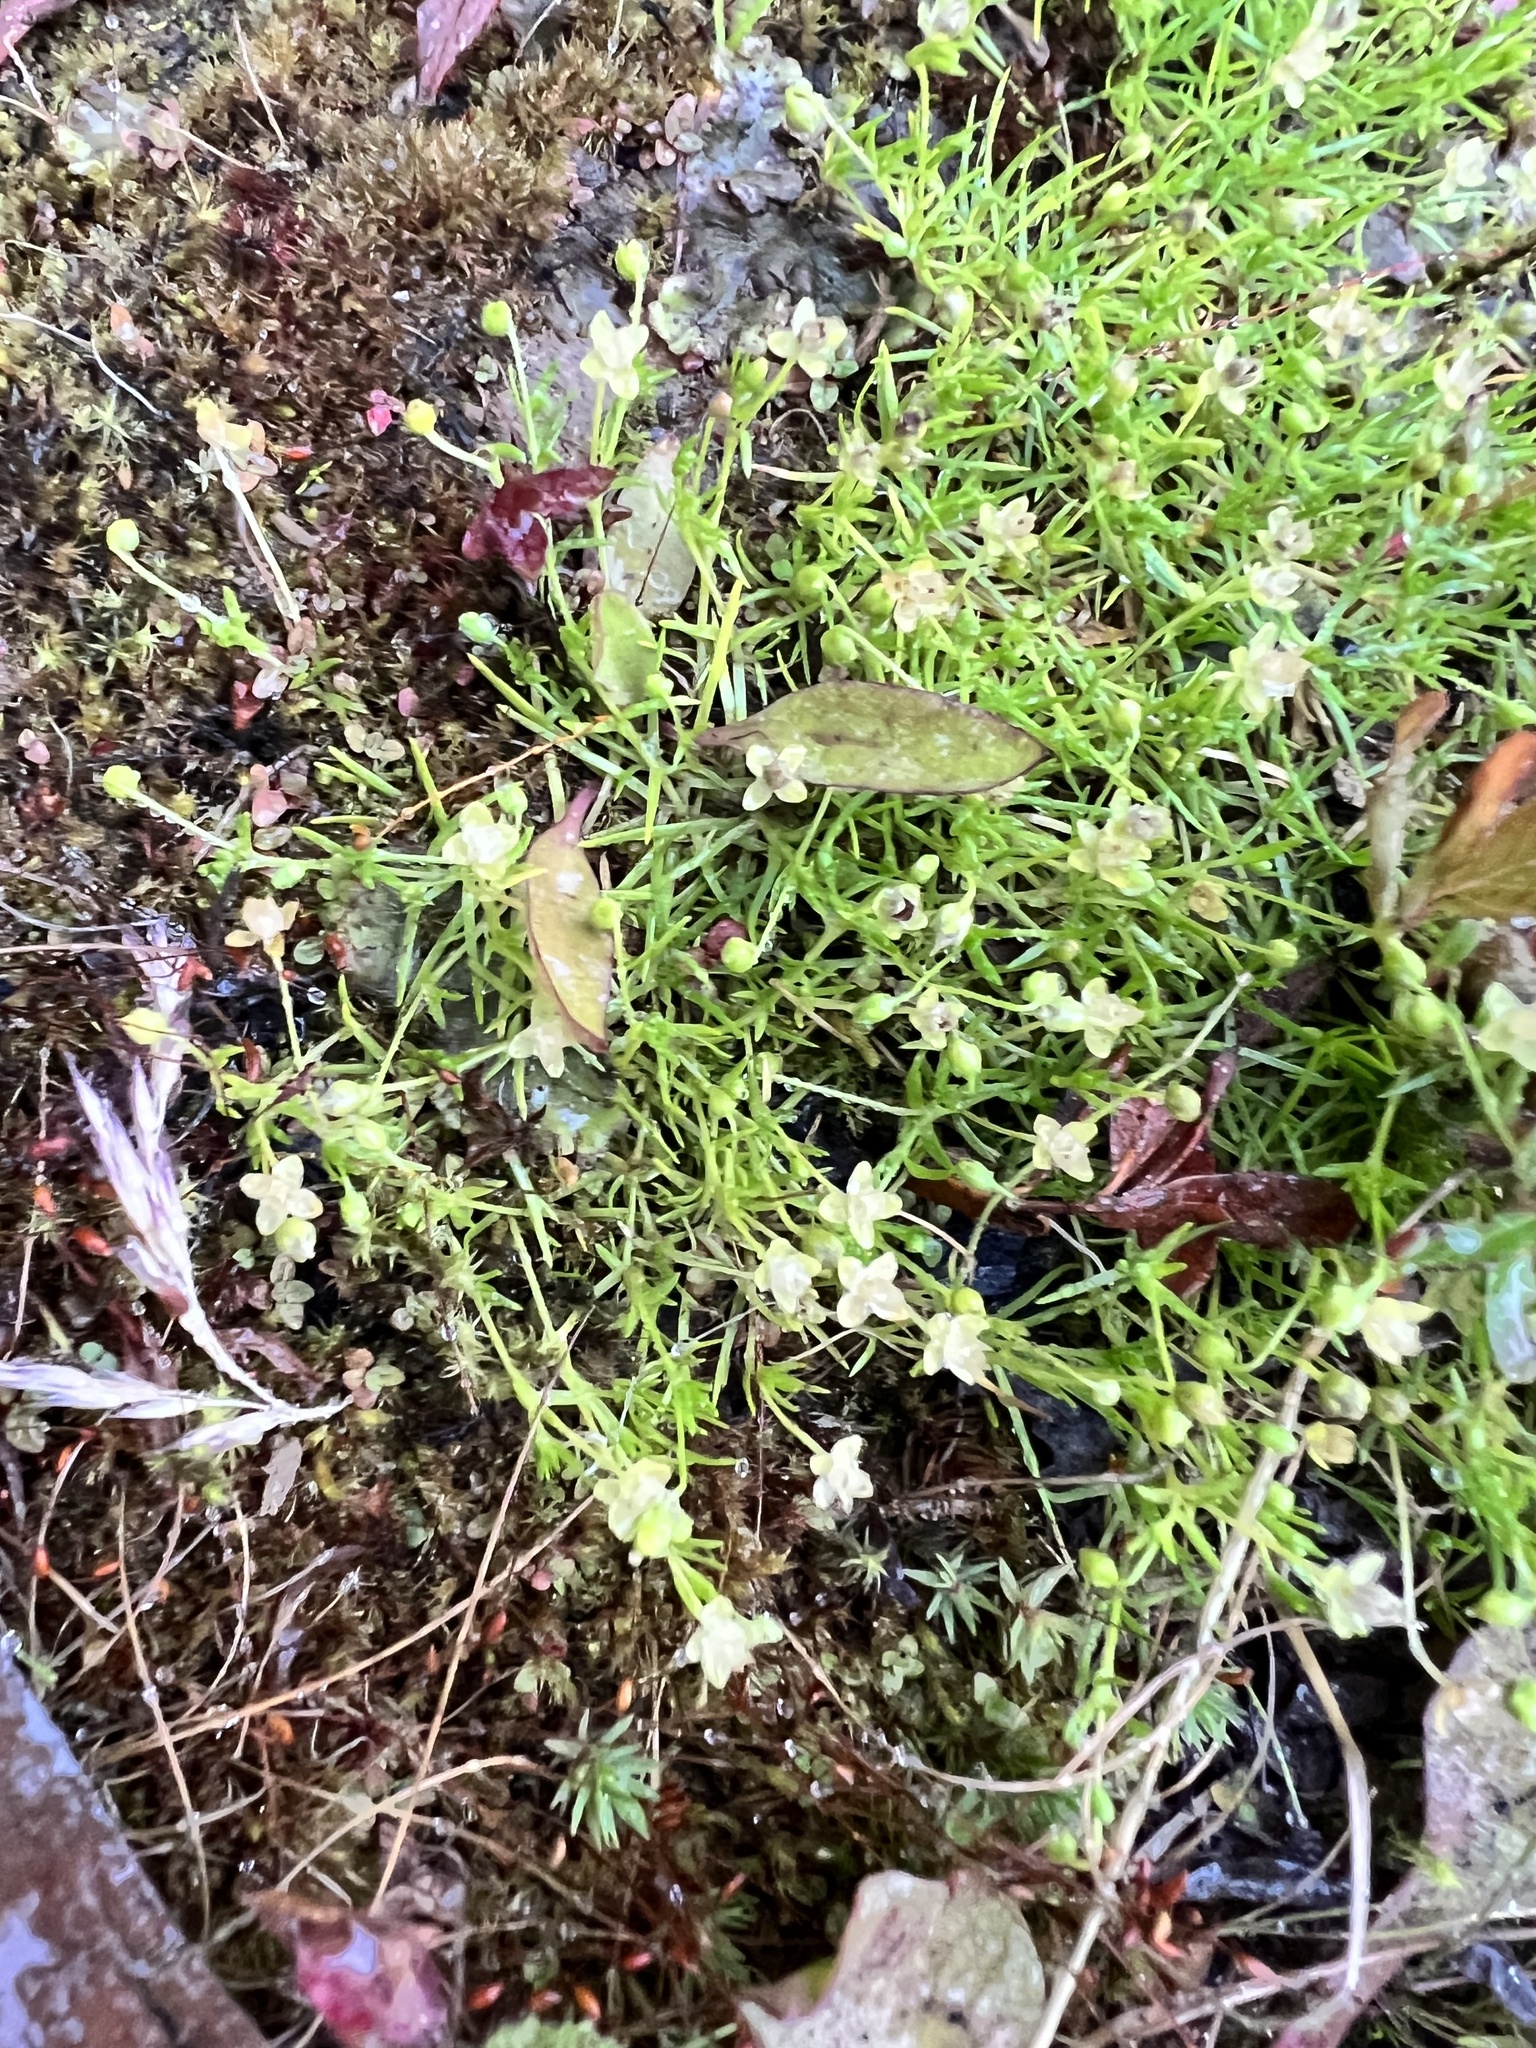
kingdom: Plantae
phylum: Tracheophyta
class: Magnoliopsida
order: Caryophyllales
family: Caryophyllaceae
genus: Sagina
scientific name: Sagina procumbens
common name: Procumbent pearlwort
